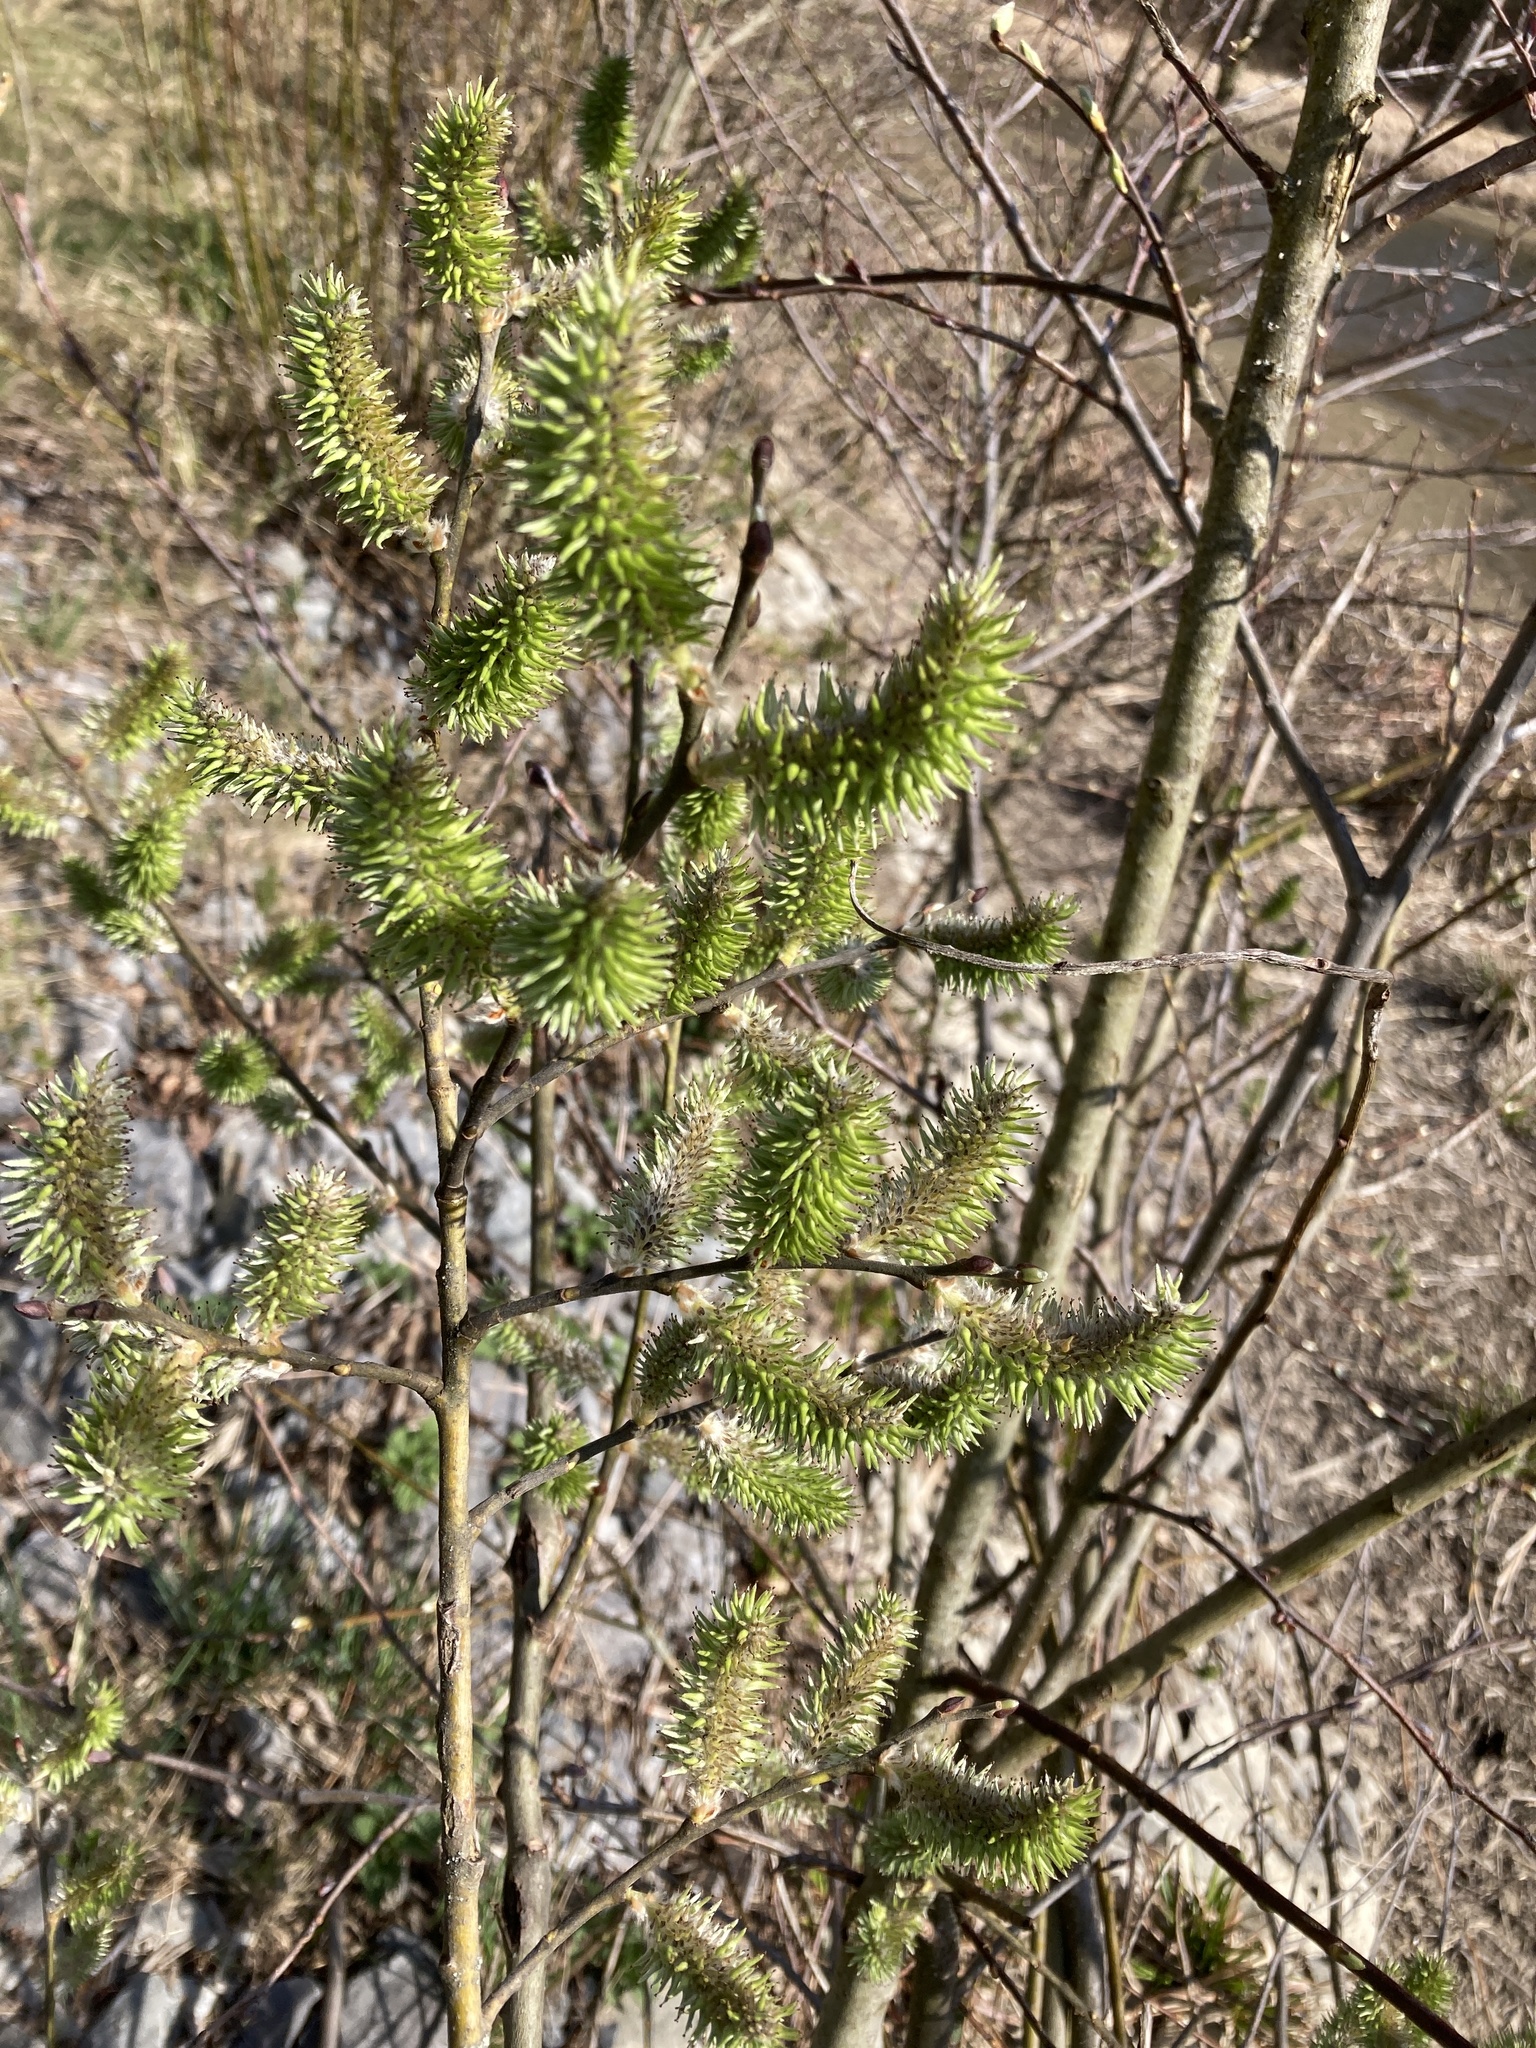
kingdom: Plantae
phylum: Tracheophyta
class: Magnoliopsida
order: Malpighiales
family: Salicaceae
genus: Salix
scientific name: Salix caprea
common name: Goat willow
